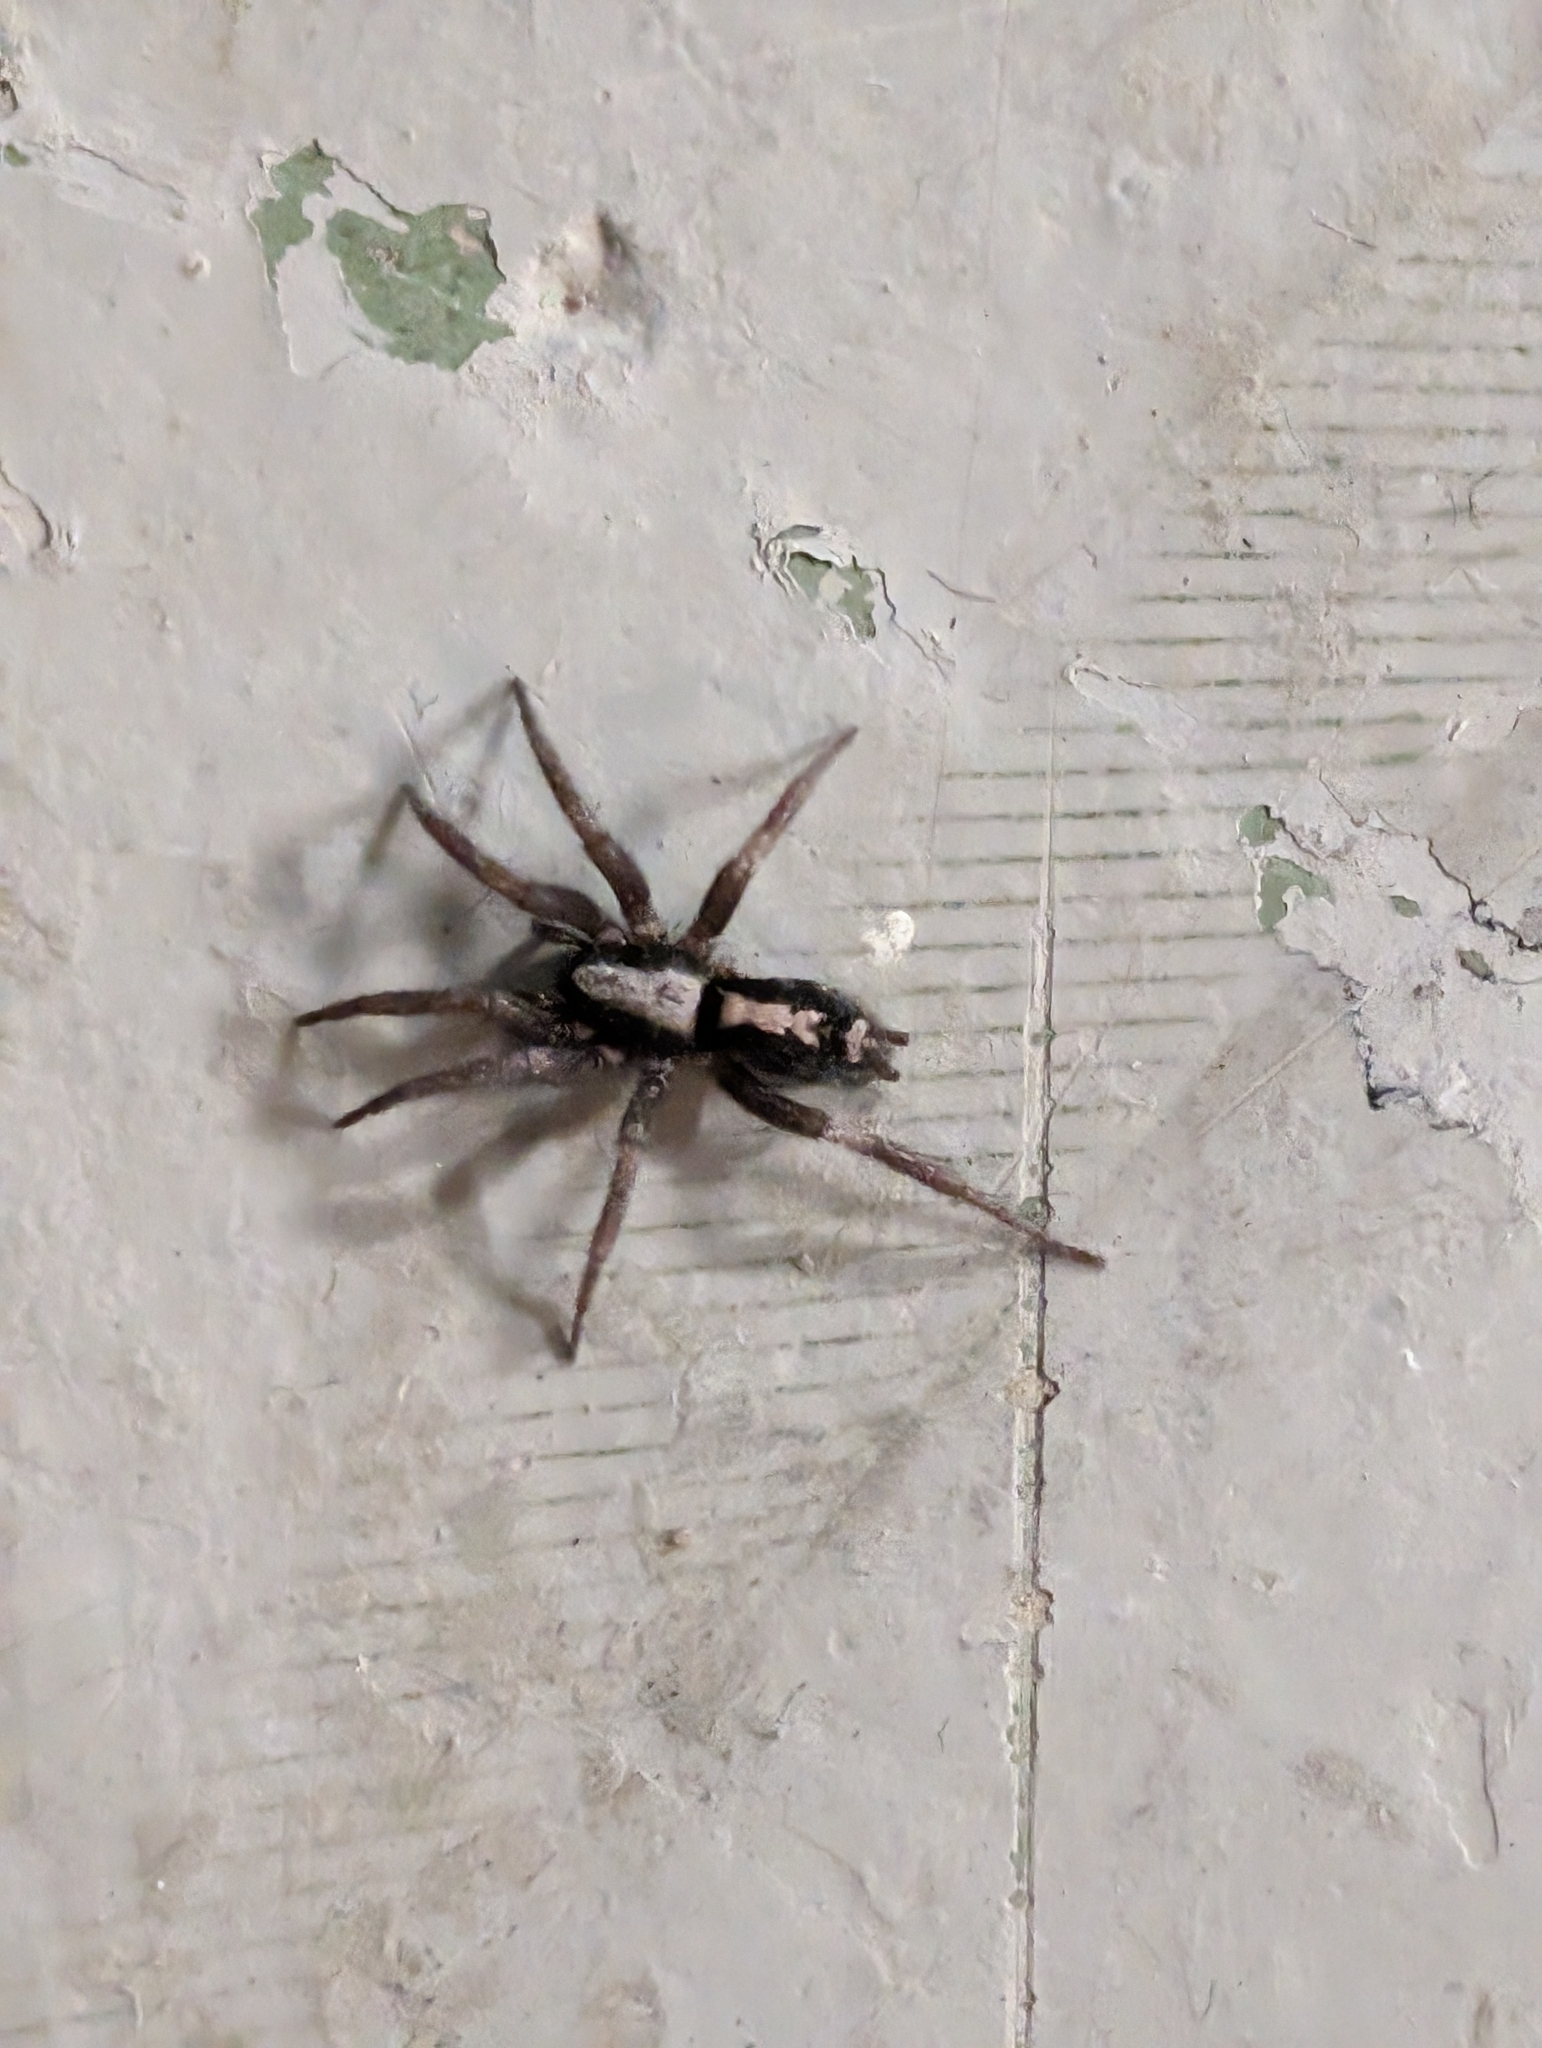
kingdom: Animalia
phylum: Arthropoda
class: Arachnida
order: Araneae
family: Gnaphosidae
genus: Herpyllus
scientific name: Herpyllus ecclesiasticus
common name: Eastern parson spider
